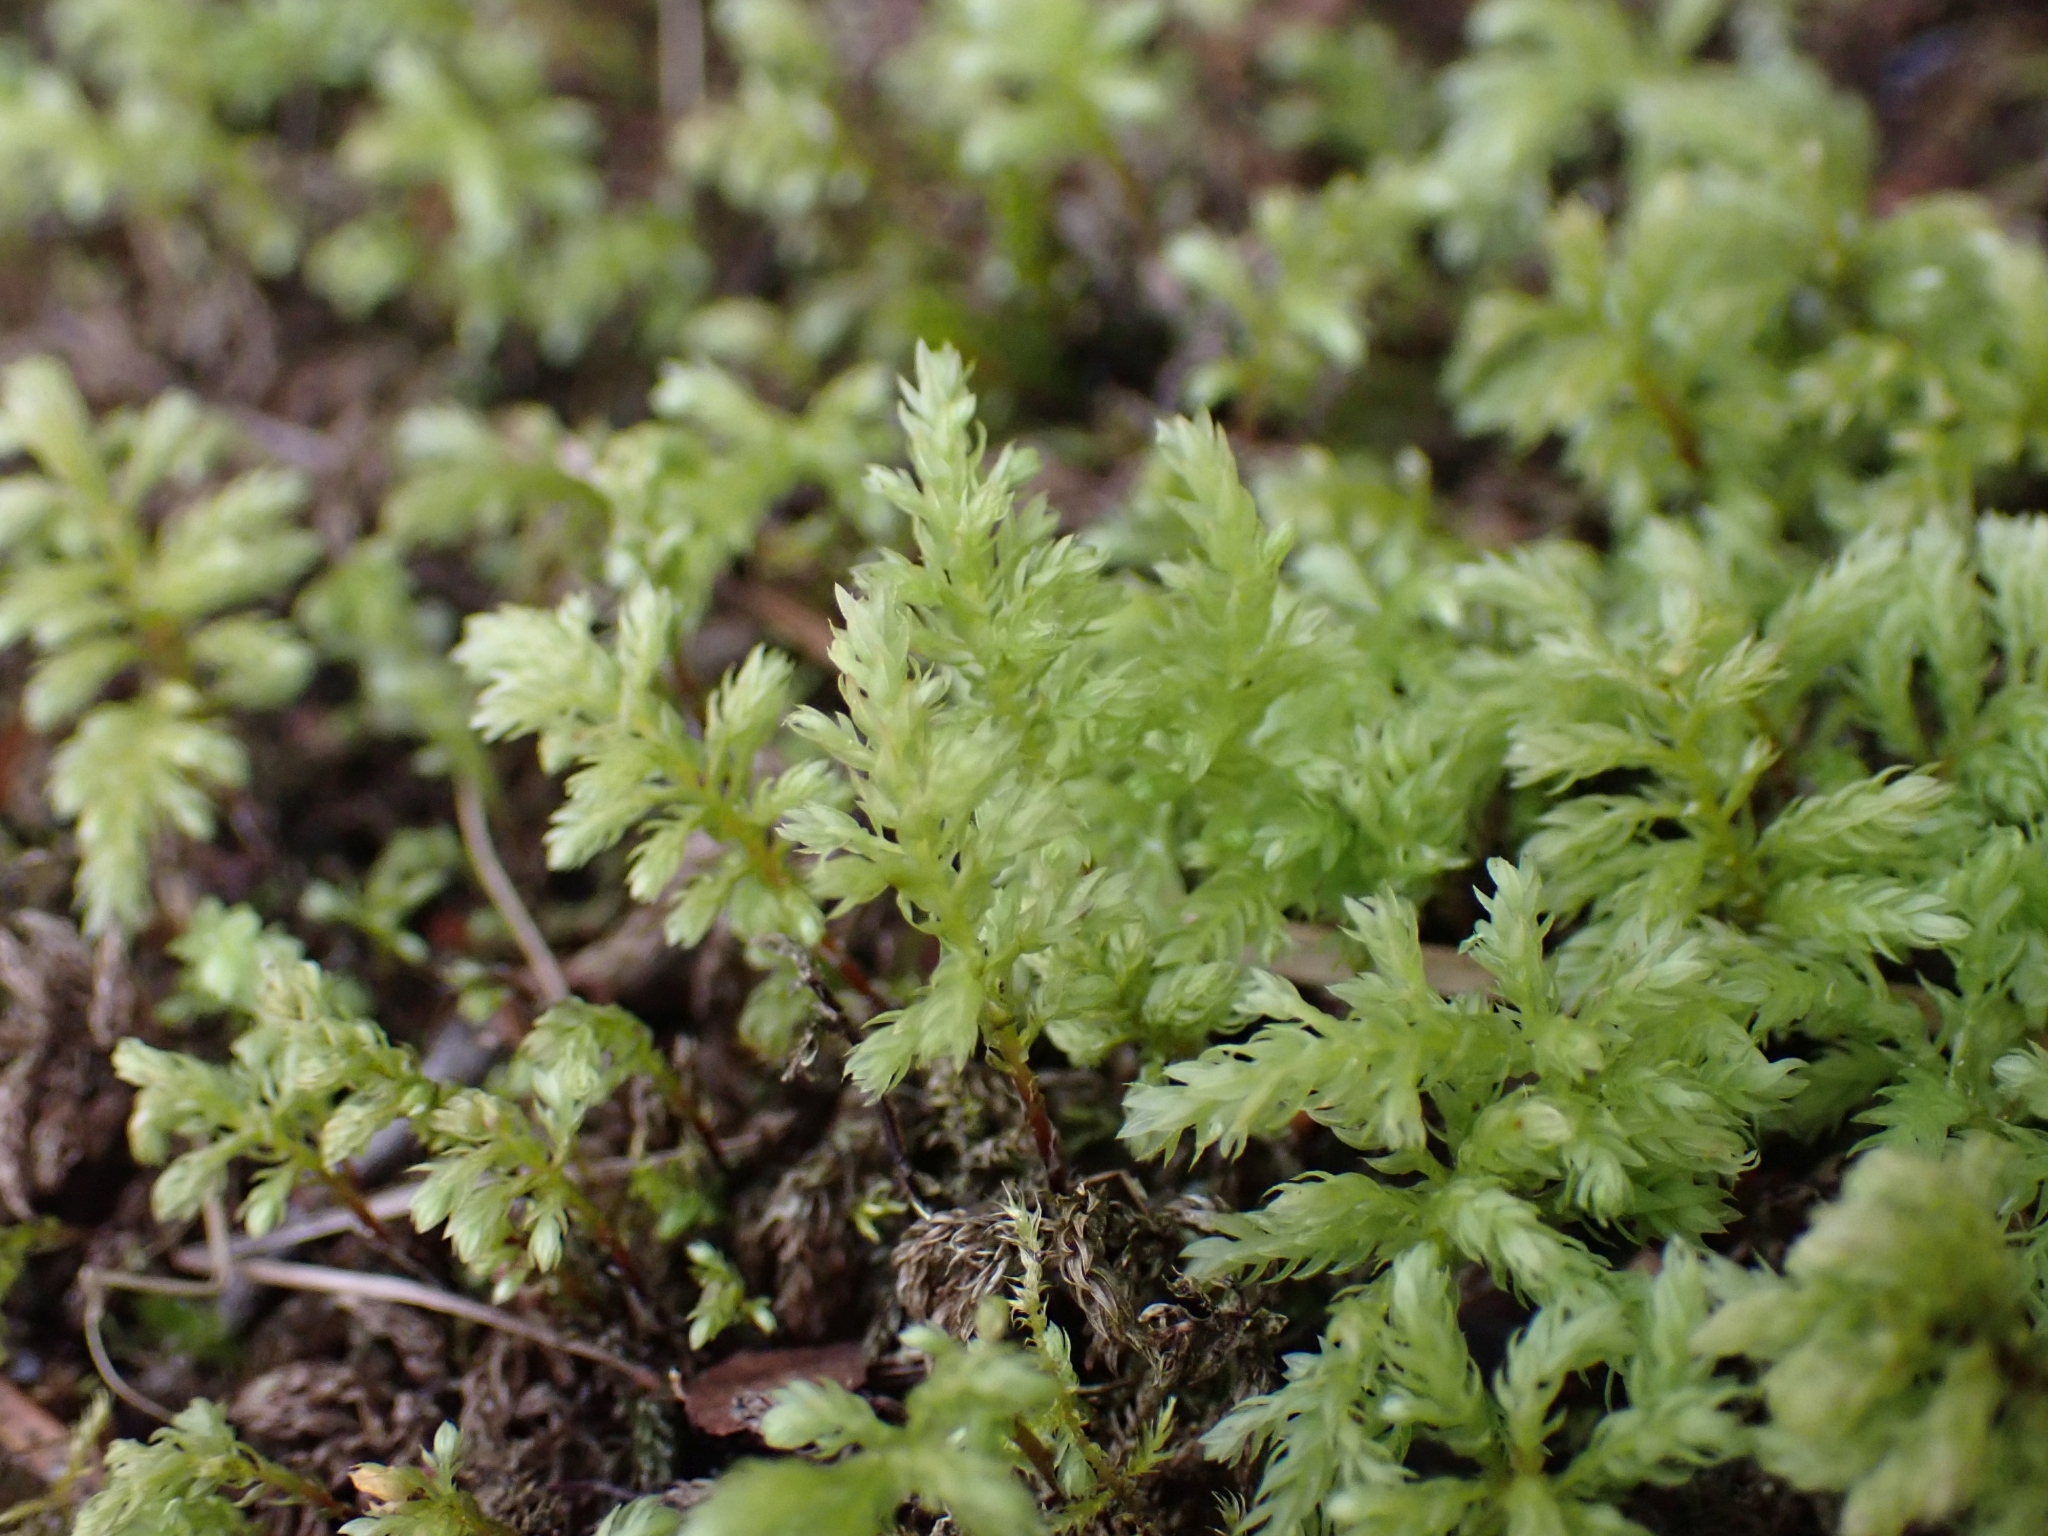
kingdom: Plantae
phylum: Bryophyta
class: Bryopsida
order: Bryales
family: Mniaceae
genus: Leucolepis
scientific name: Leucolepis acanthoneura
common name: Leucolepis umbrella moss
